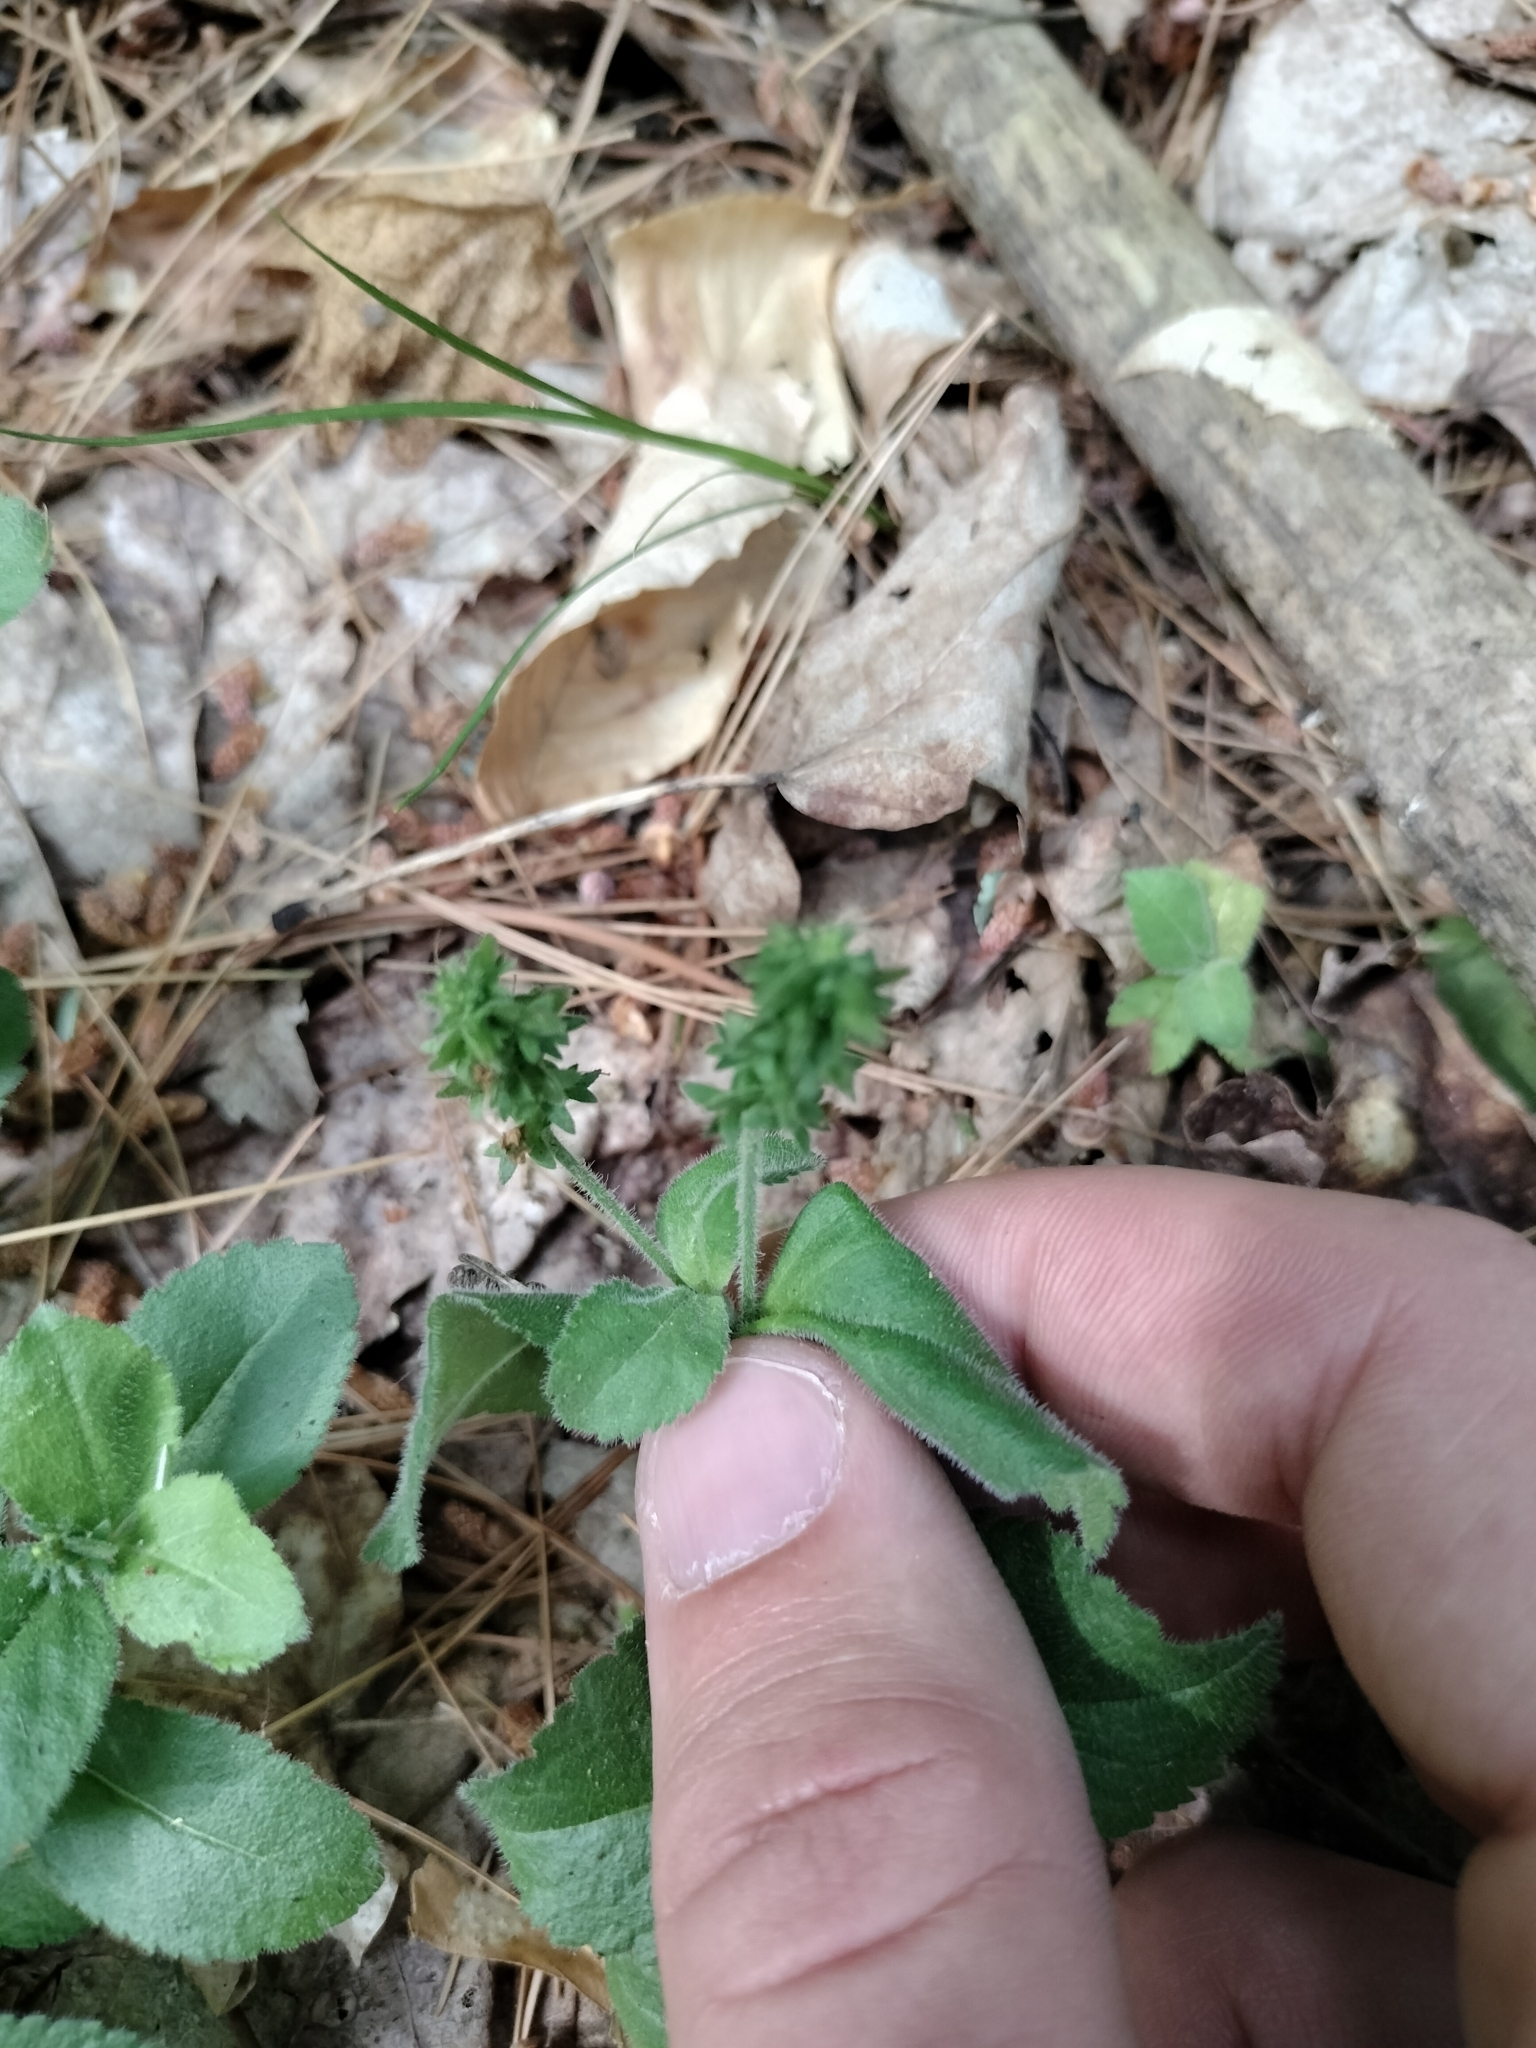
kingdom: Plantae
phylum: Tracheophyta
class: Magnoliopsida
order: Lamiales
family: Plantaginaceae
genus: Veronica
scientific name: Veronica officinalis
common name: Common speedwell
